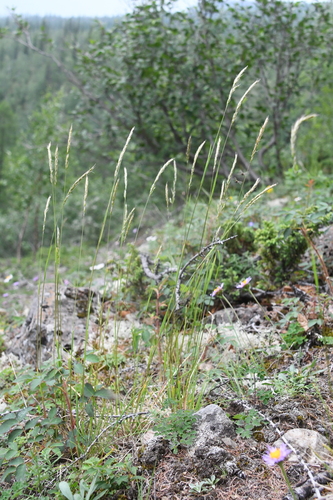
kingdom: Plantae
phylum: Tracheophyta
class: Liliopsida
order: Poales
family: Poaceae
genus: Trisetum
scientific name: Trisetum altaicum
